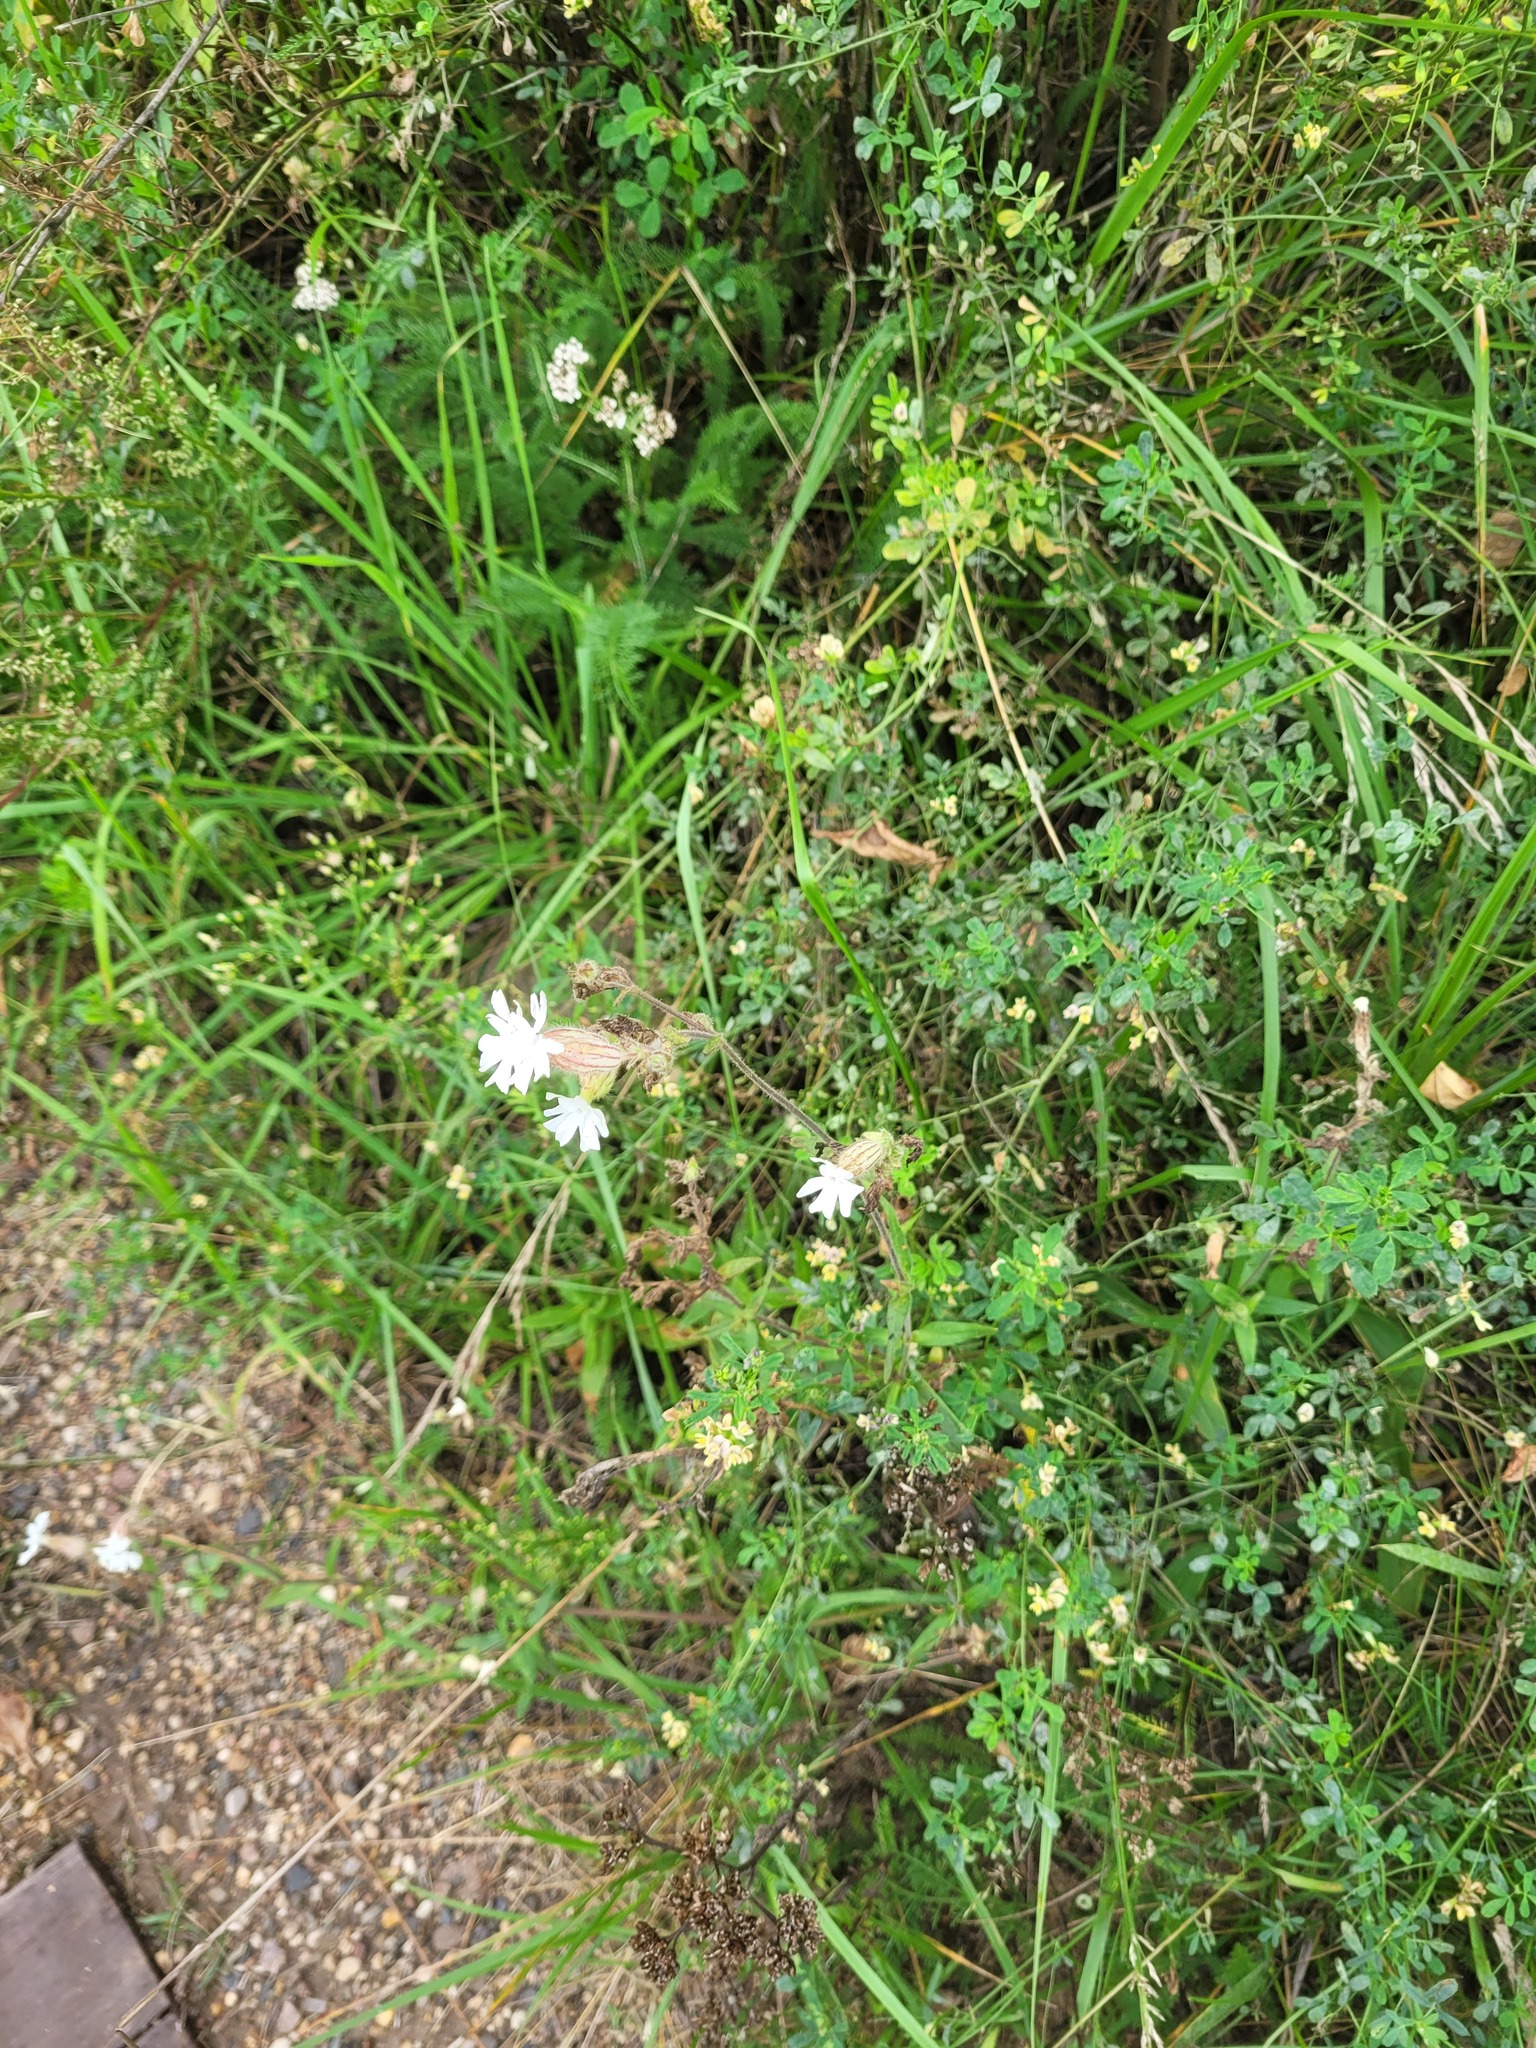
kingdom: Plantae
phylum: Tracheophyta
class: Magnoliopsida
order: Caryophyllales
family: Caryophyllaceae
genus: Silene
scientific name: Silene latifolia
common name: White campion
